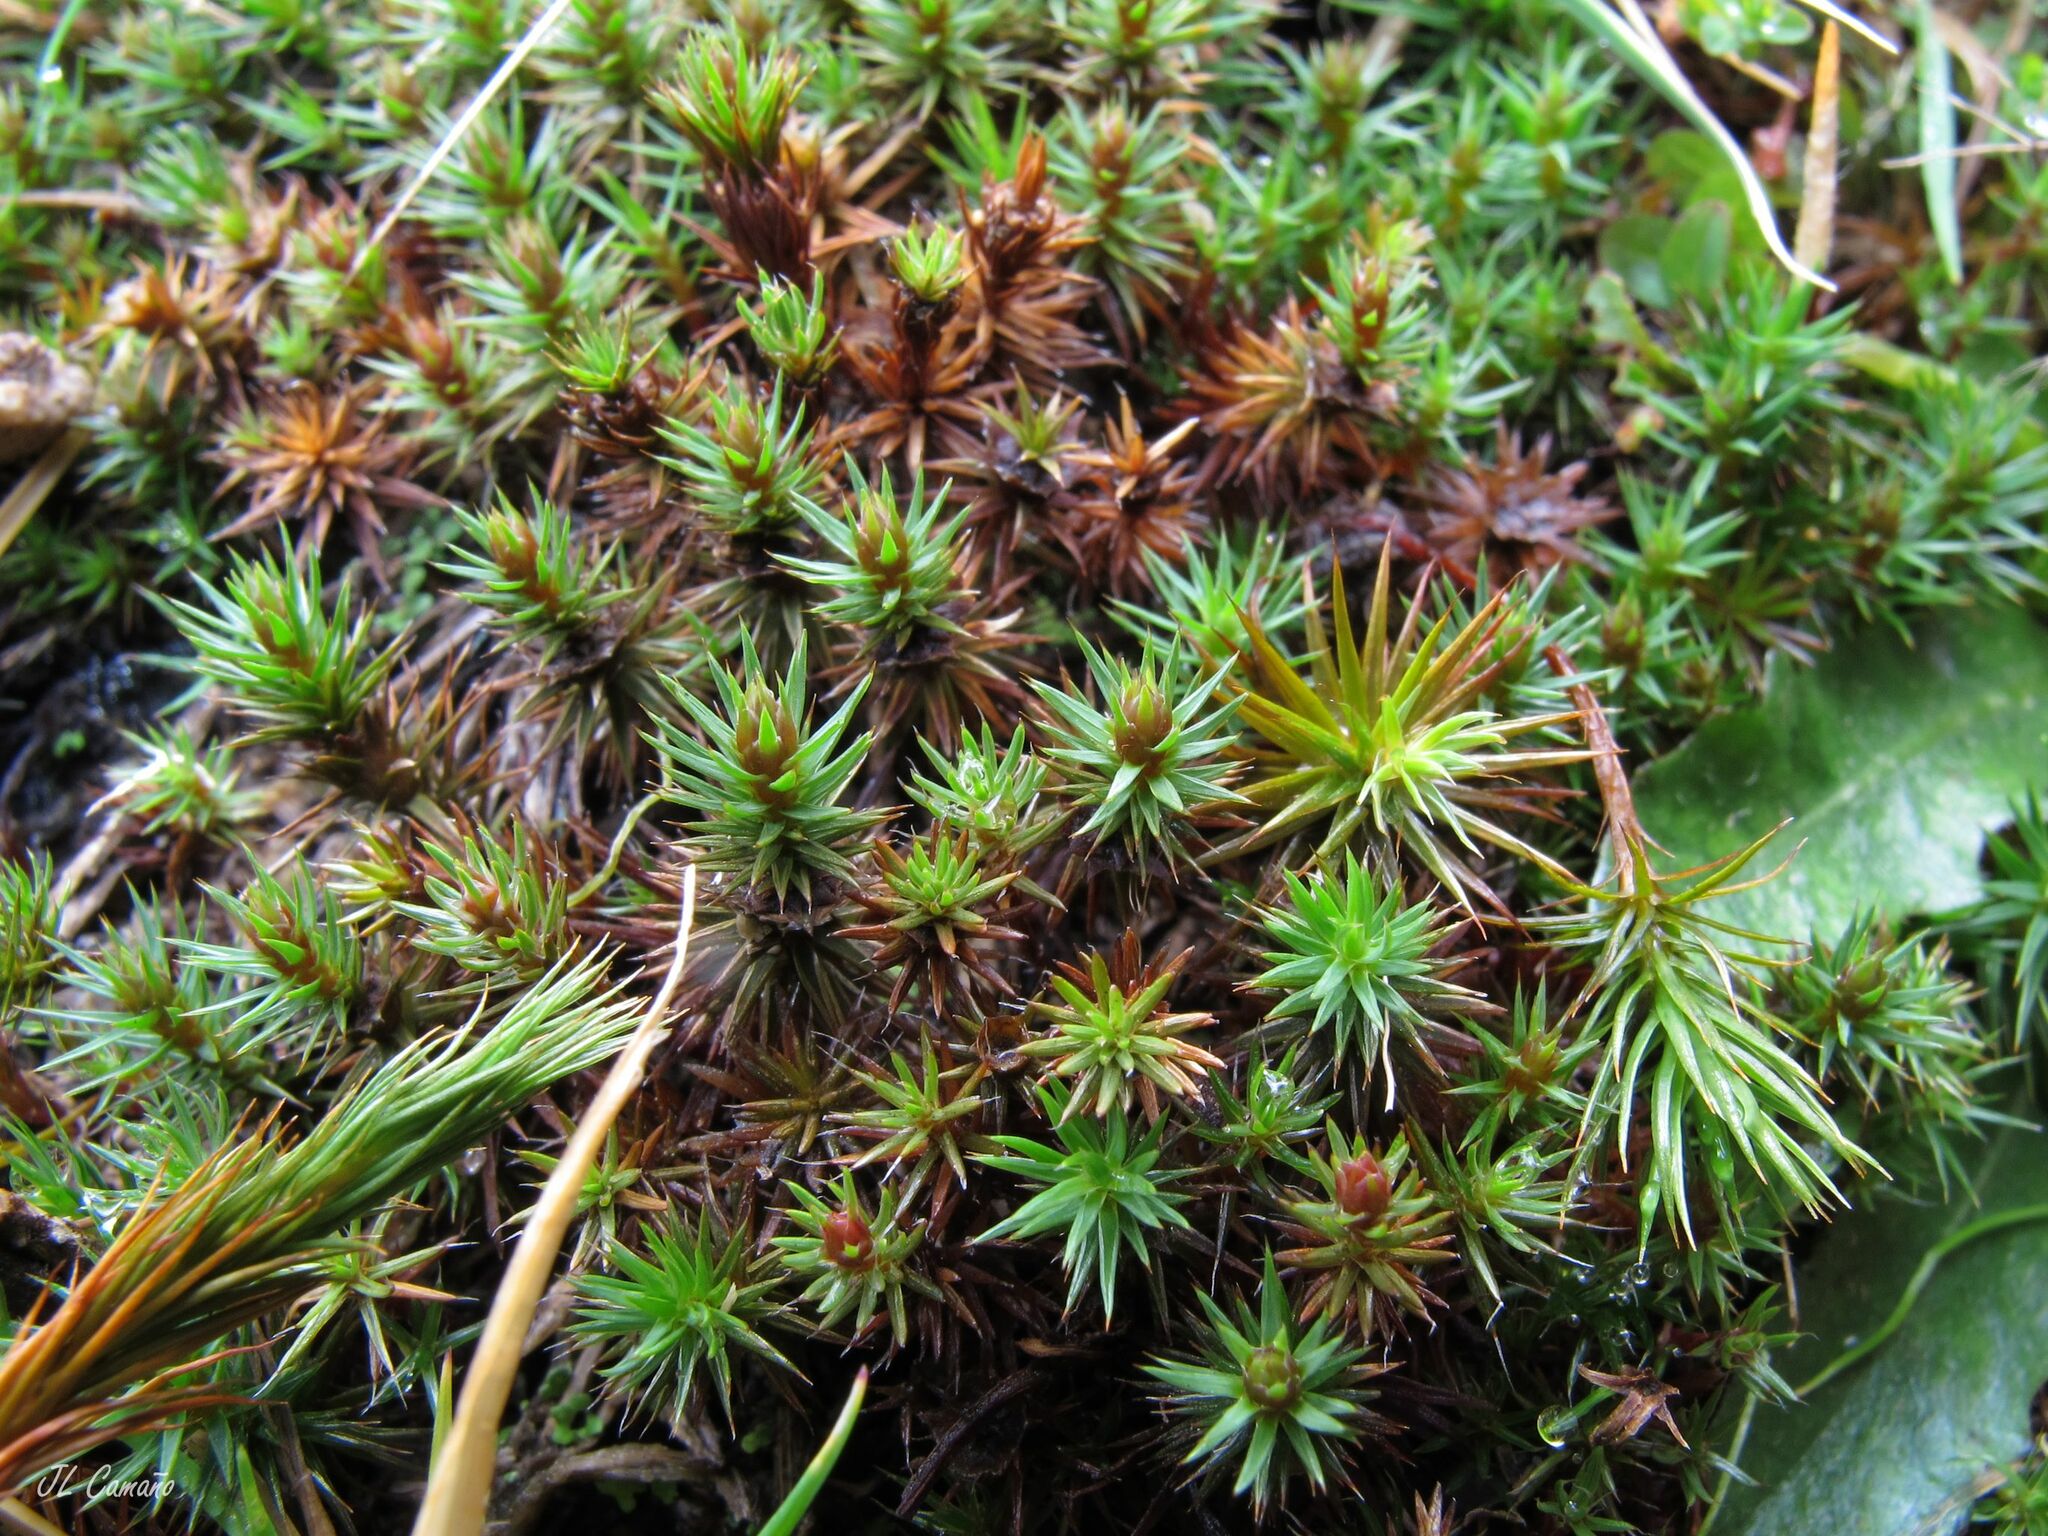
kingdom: Plantae
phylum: Bryophyta
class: Polytrichopsida
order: Polytrichales
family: Polytrichaceae
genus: Polytrichum
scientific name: Polytrichum juniperinum
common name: Juniper haircap moss
